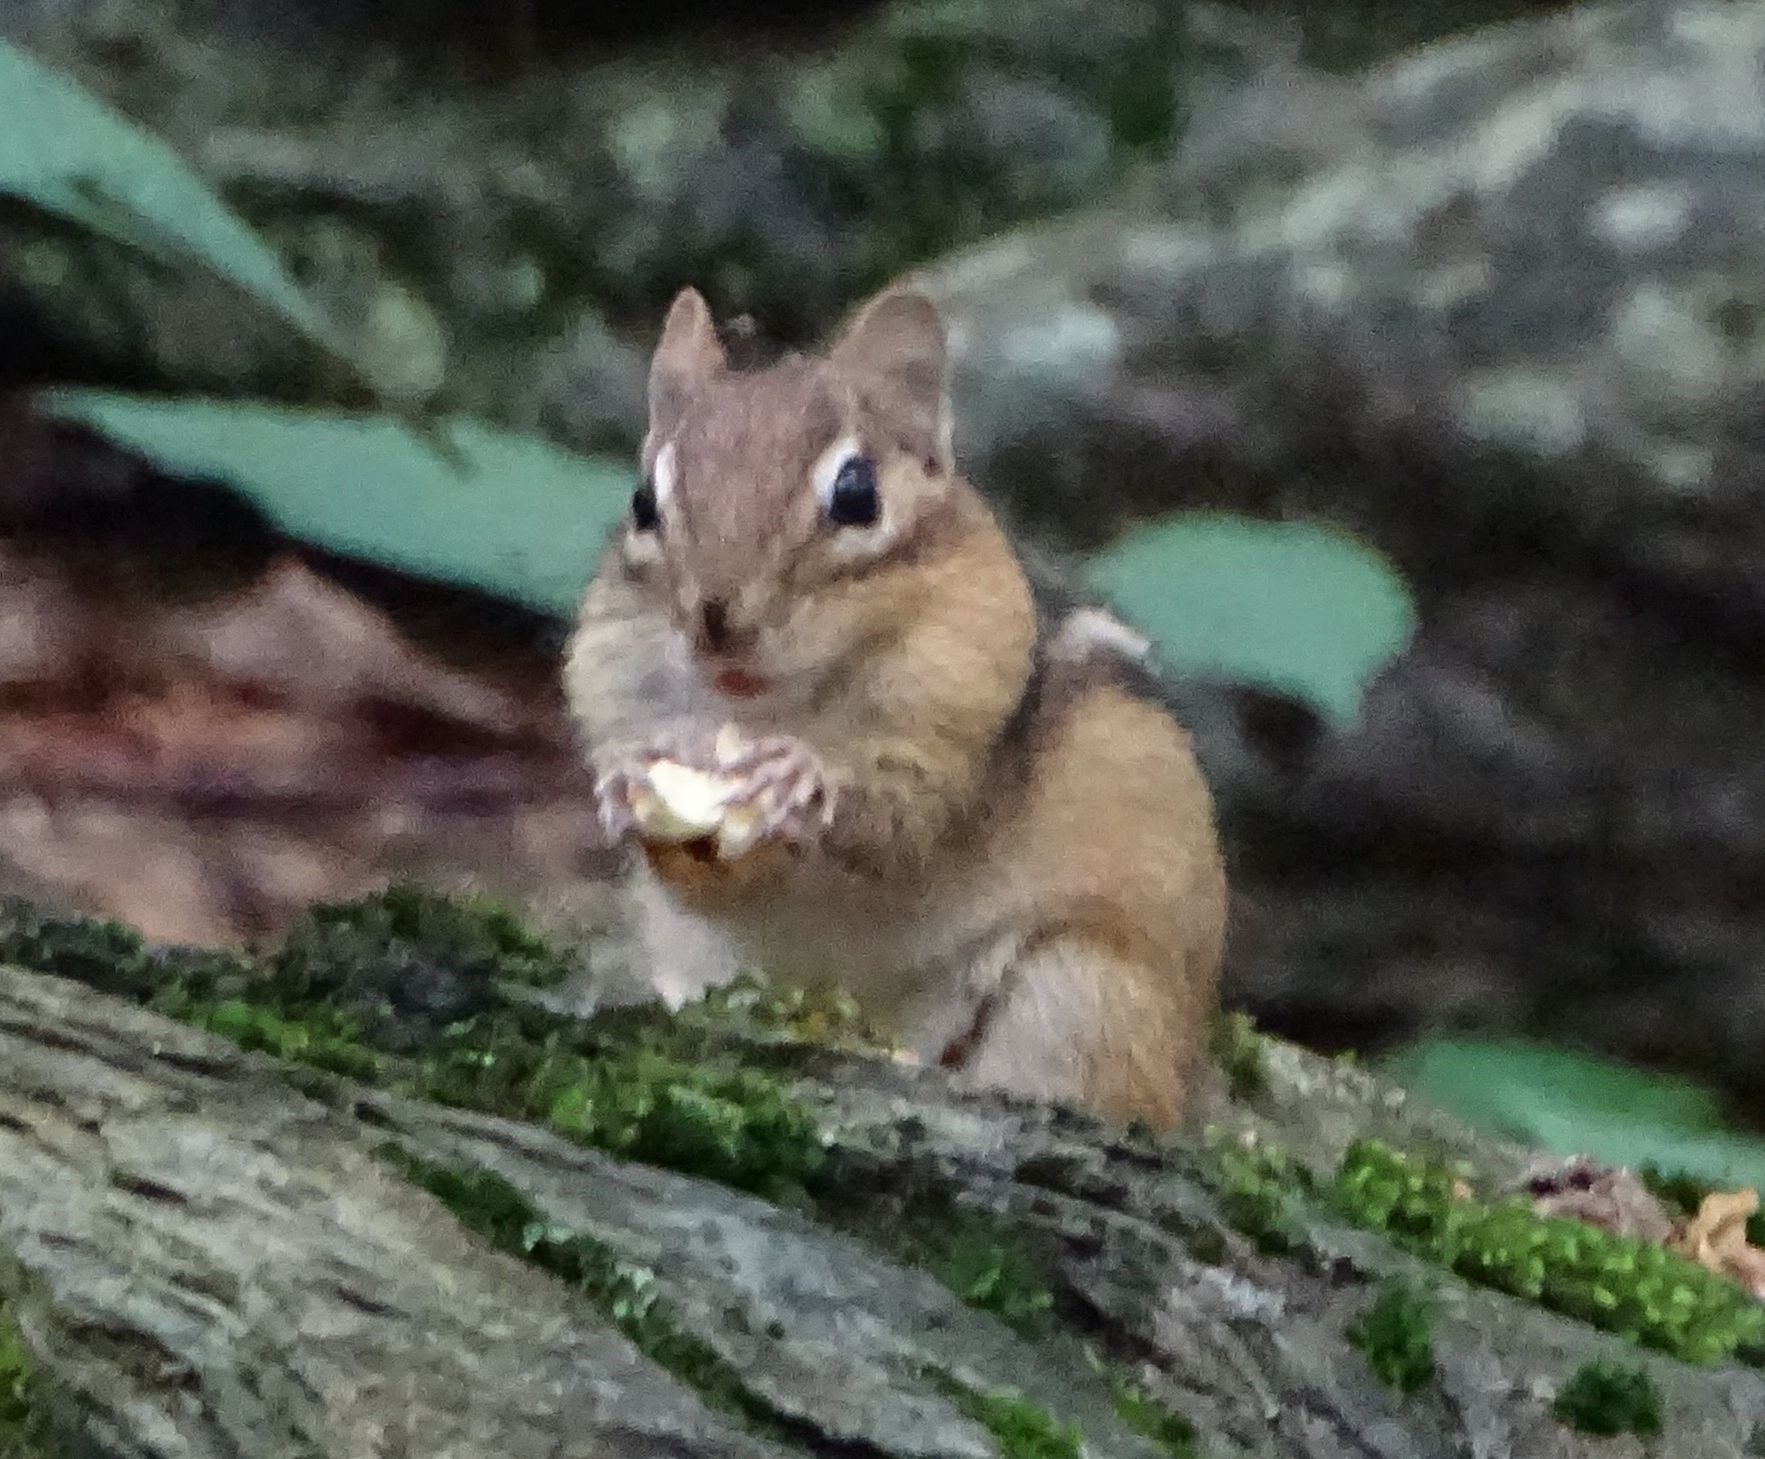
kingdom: Animalia
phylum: Chordata
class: Mammalia
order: Rodentia
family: Sciuridae
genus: Tamias
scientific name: Tamias striatus
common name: Eastern chipmunk
